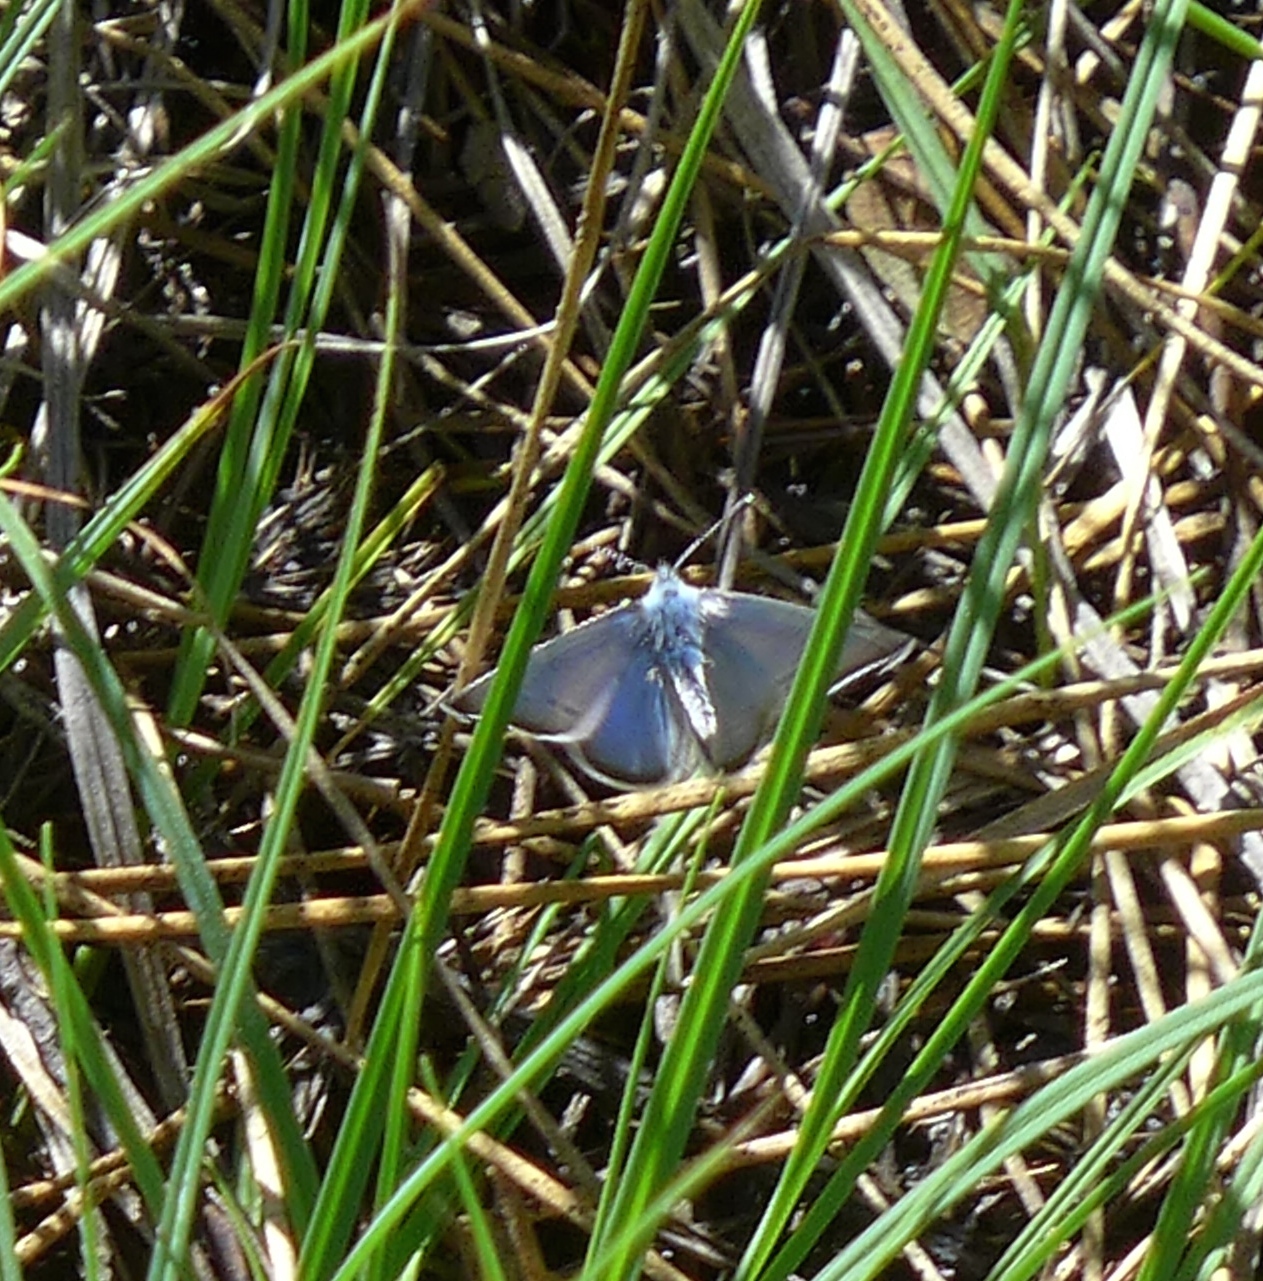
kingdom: Animalia
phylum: Arthropoda
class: Insecta
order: Lepidoptera
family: Lycaenidae
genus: Glaucopsyche
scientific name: Glaucopsyche lygdamus
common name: Silvery blue
